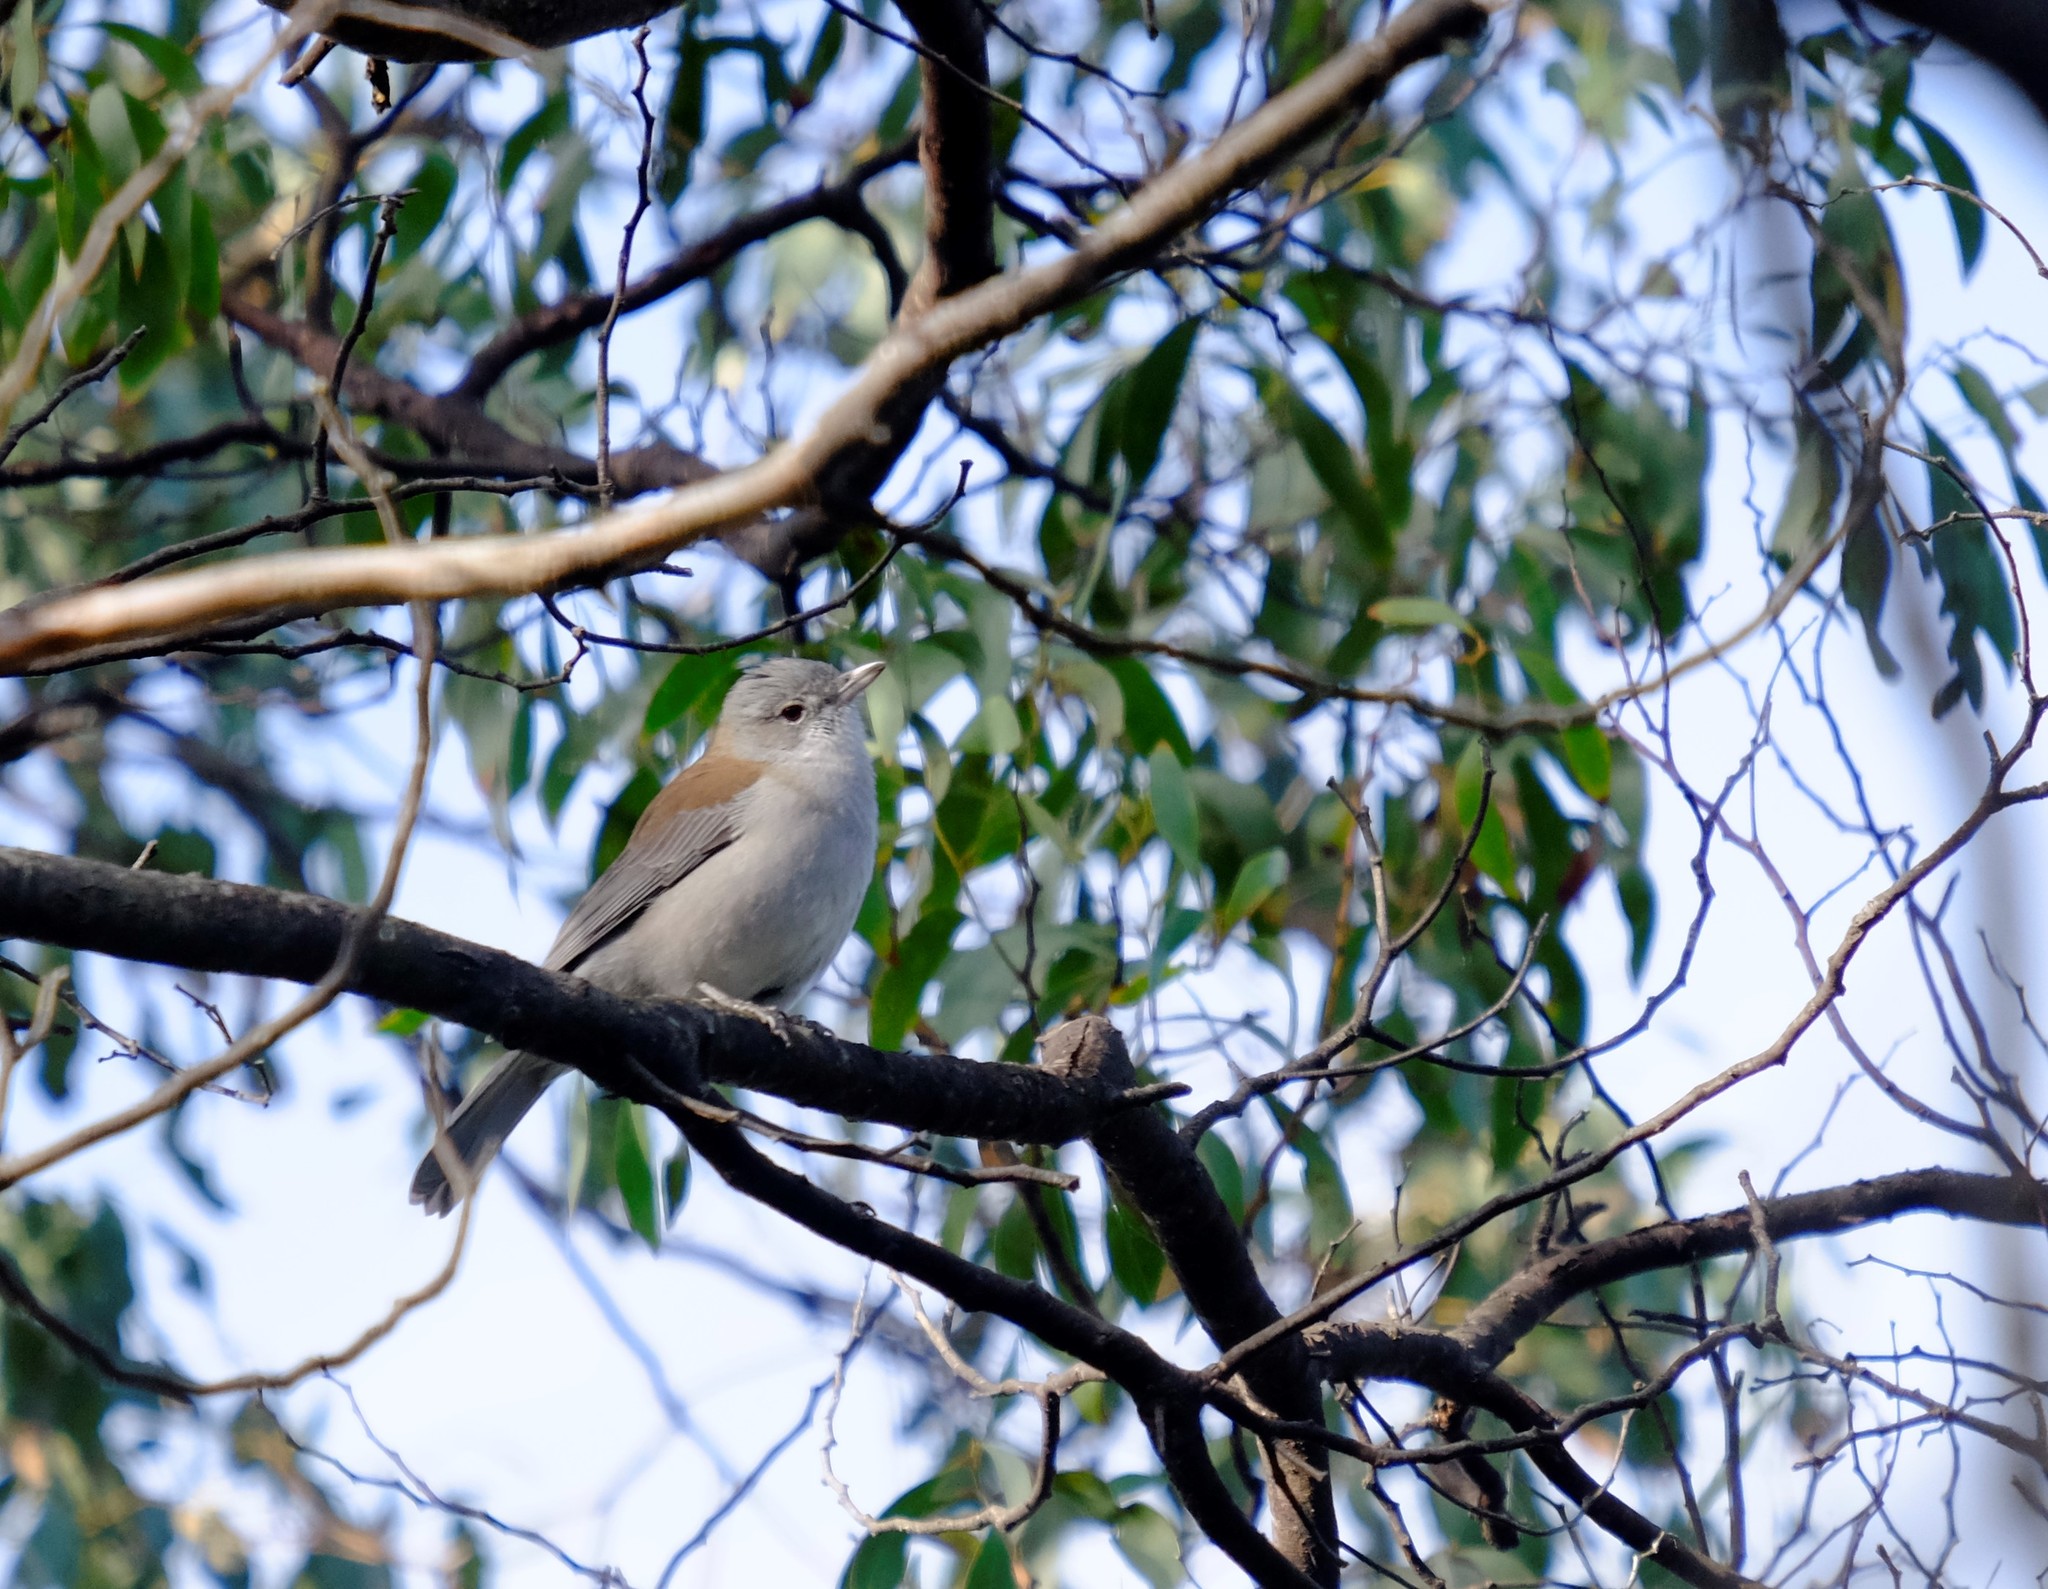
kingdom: Animalia
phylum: Chordata
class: Aves
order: Passeriformes
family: Pachycephalidae
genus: Colluricincla
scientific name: Colluricincla harmonica
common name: Grey shrikethrush
